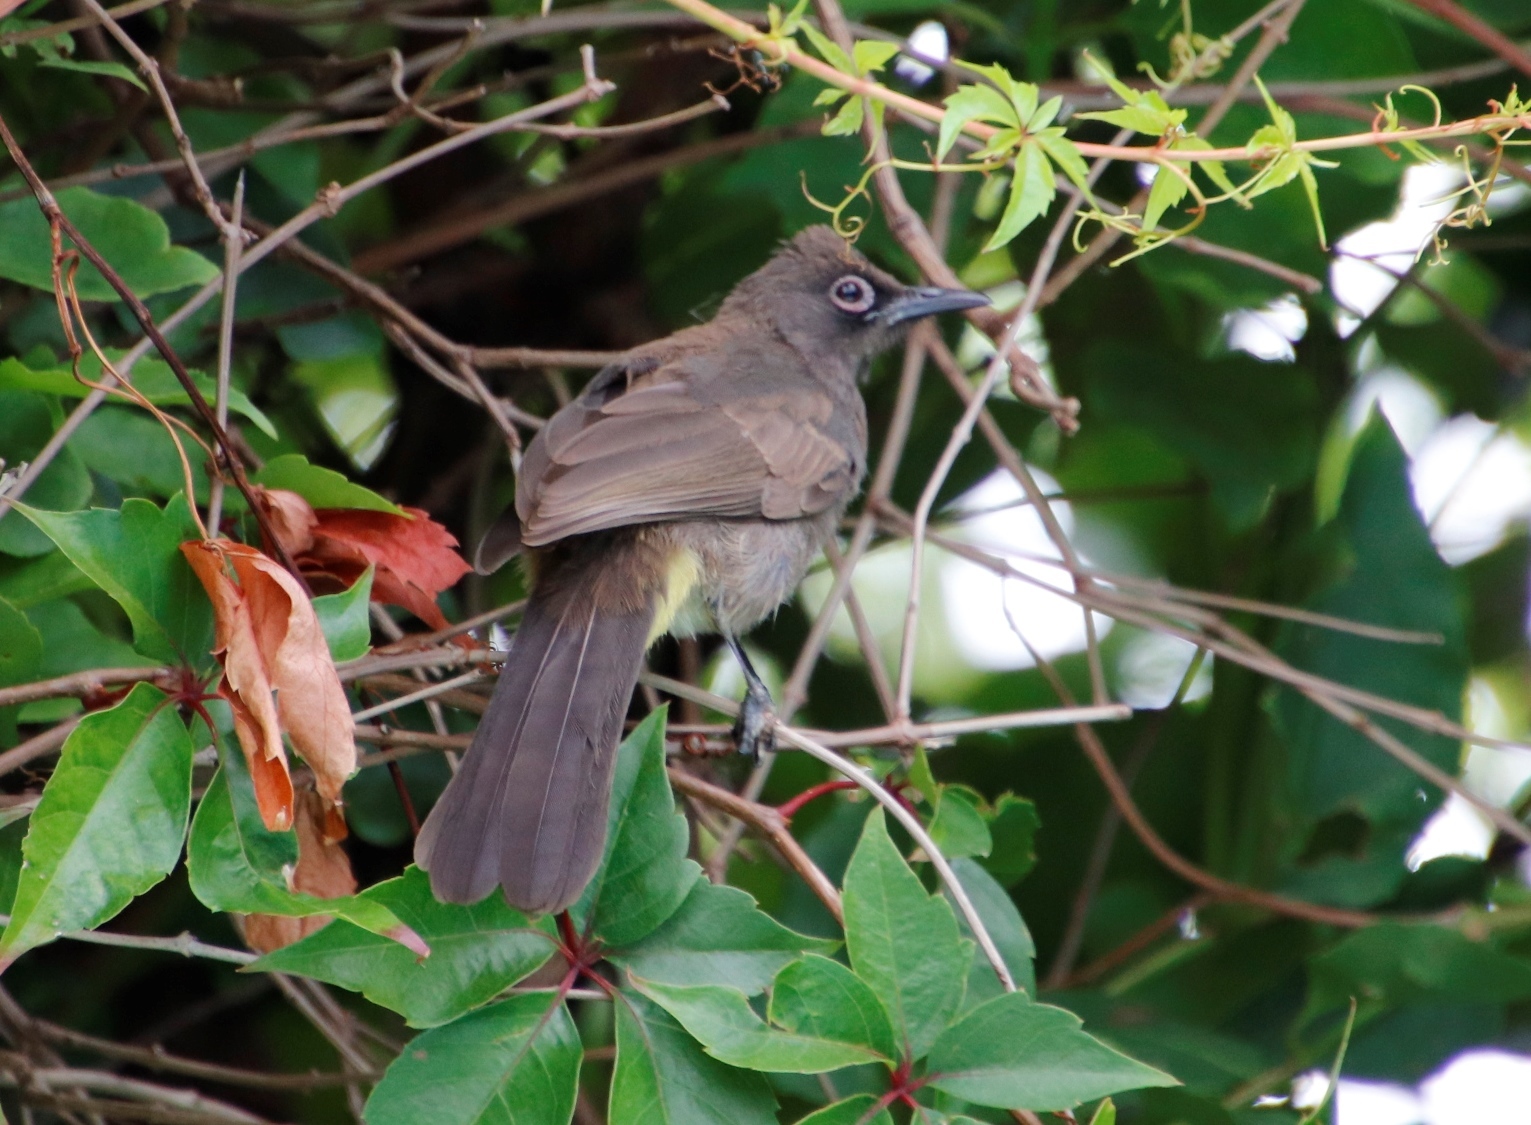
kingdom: Animalia
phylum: Chordata
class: Aves
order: Passeriformes
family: Pycnonotidae
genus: Pycnonotus
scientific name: Pycnonotus capensis
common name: Cape bulbul
